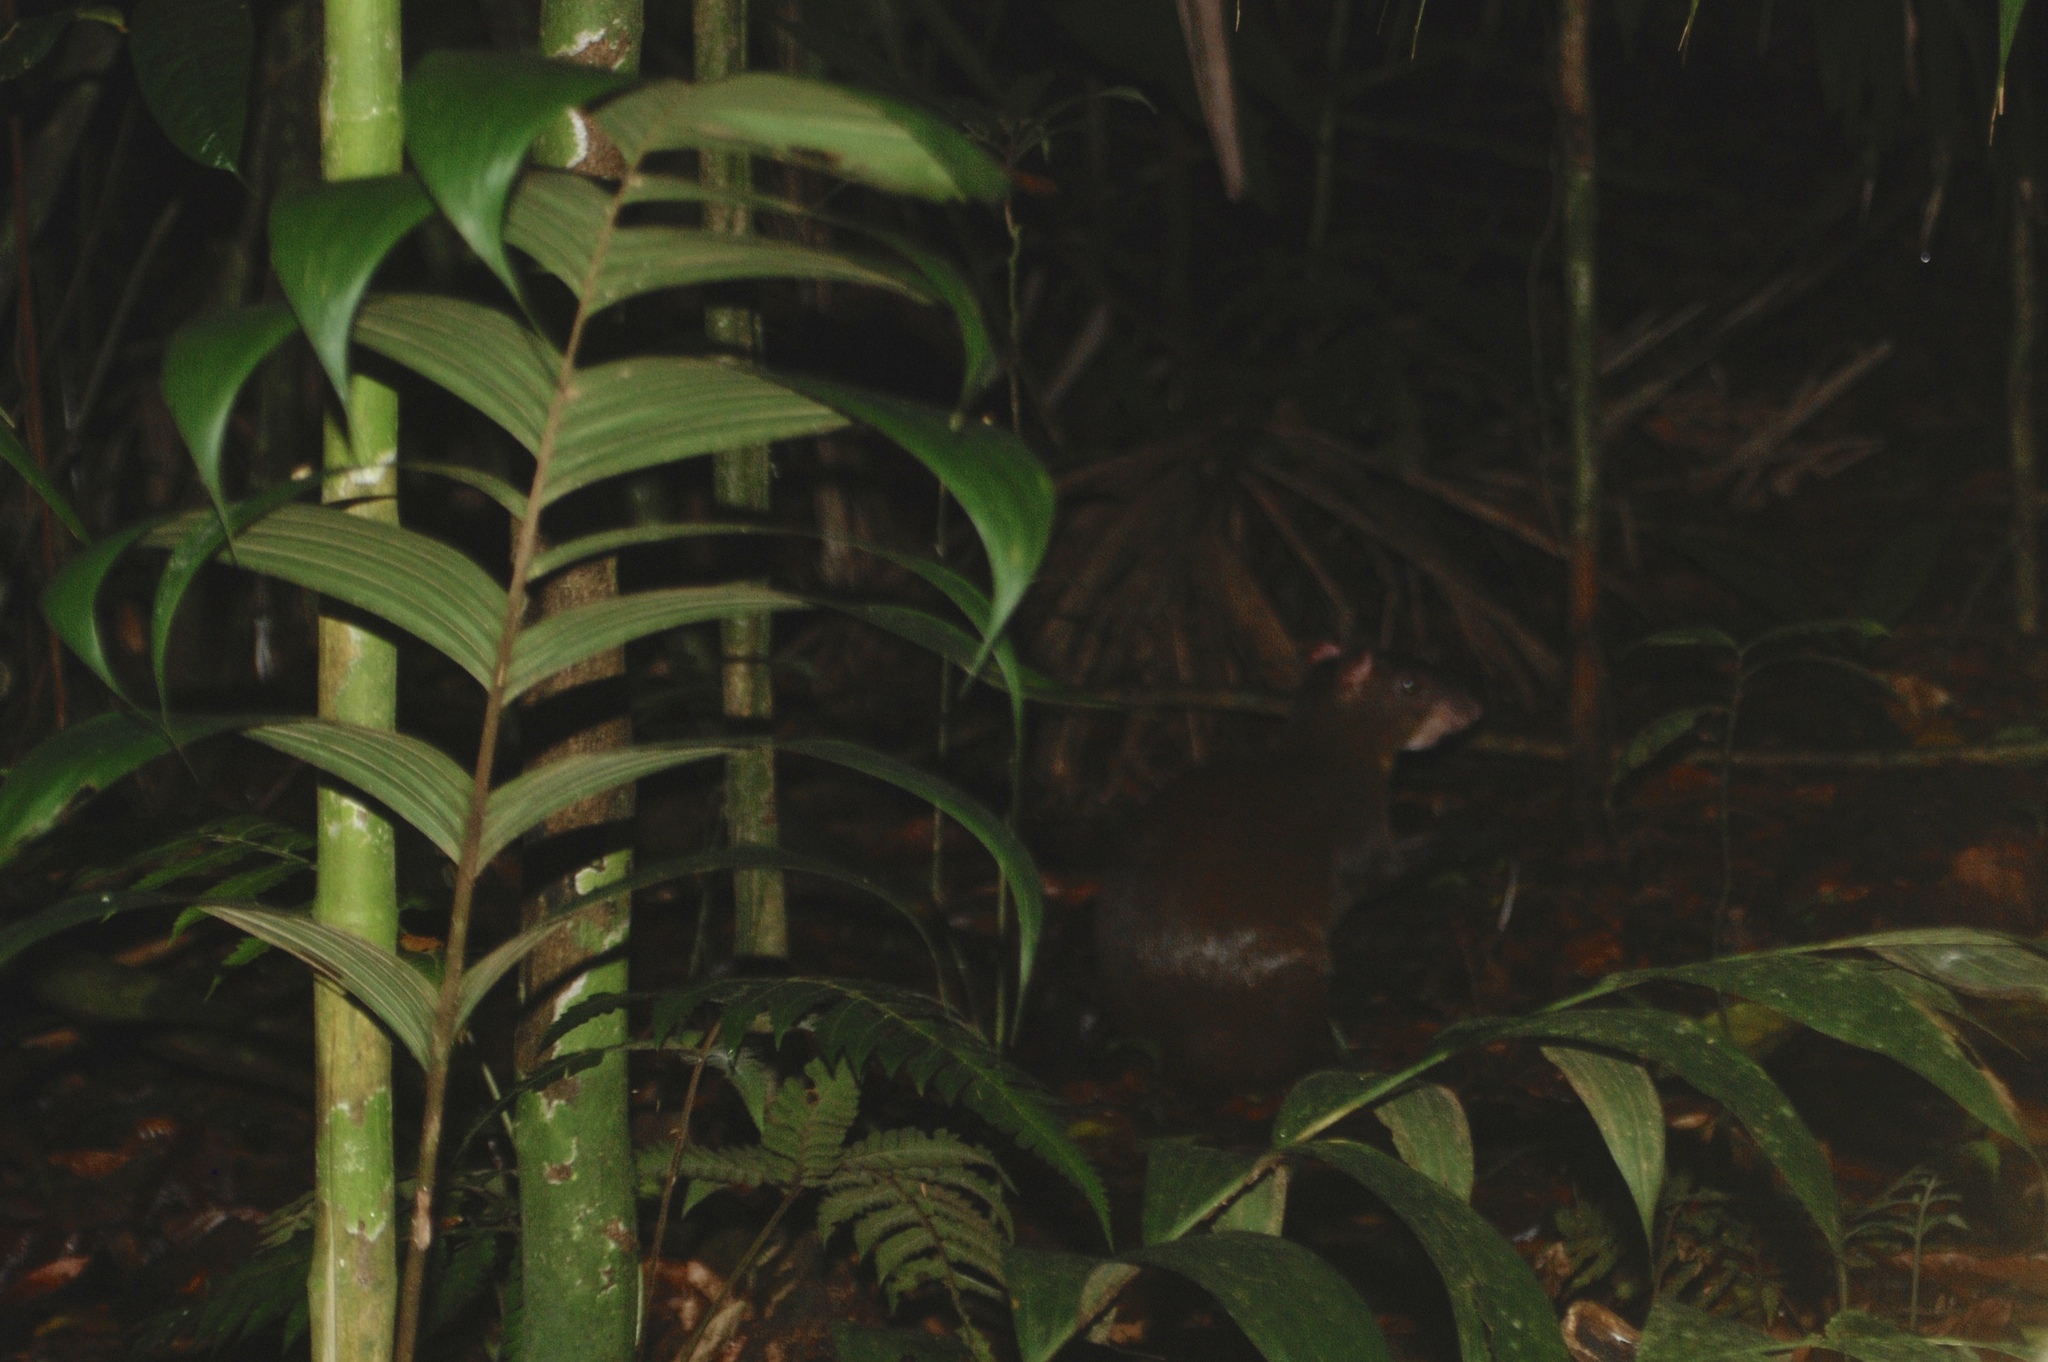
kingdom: Animalia
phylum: Chordata
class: Mammalia
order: Rodentia
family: Dasyproctidae
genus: Dasyprocta
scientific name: Dasyprocta punctata
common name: Central american agouti
